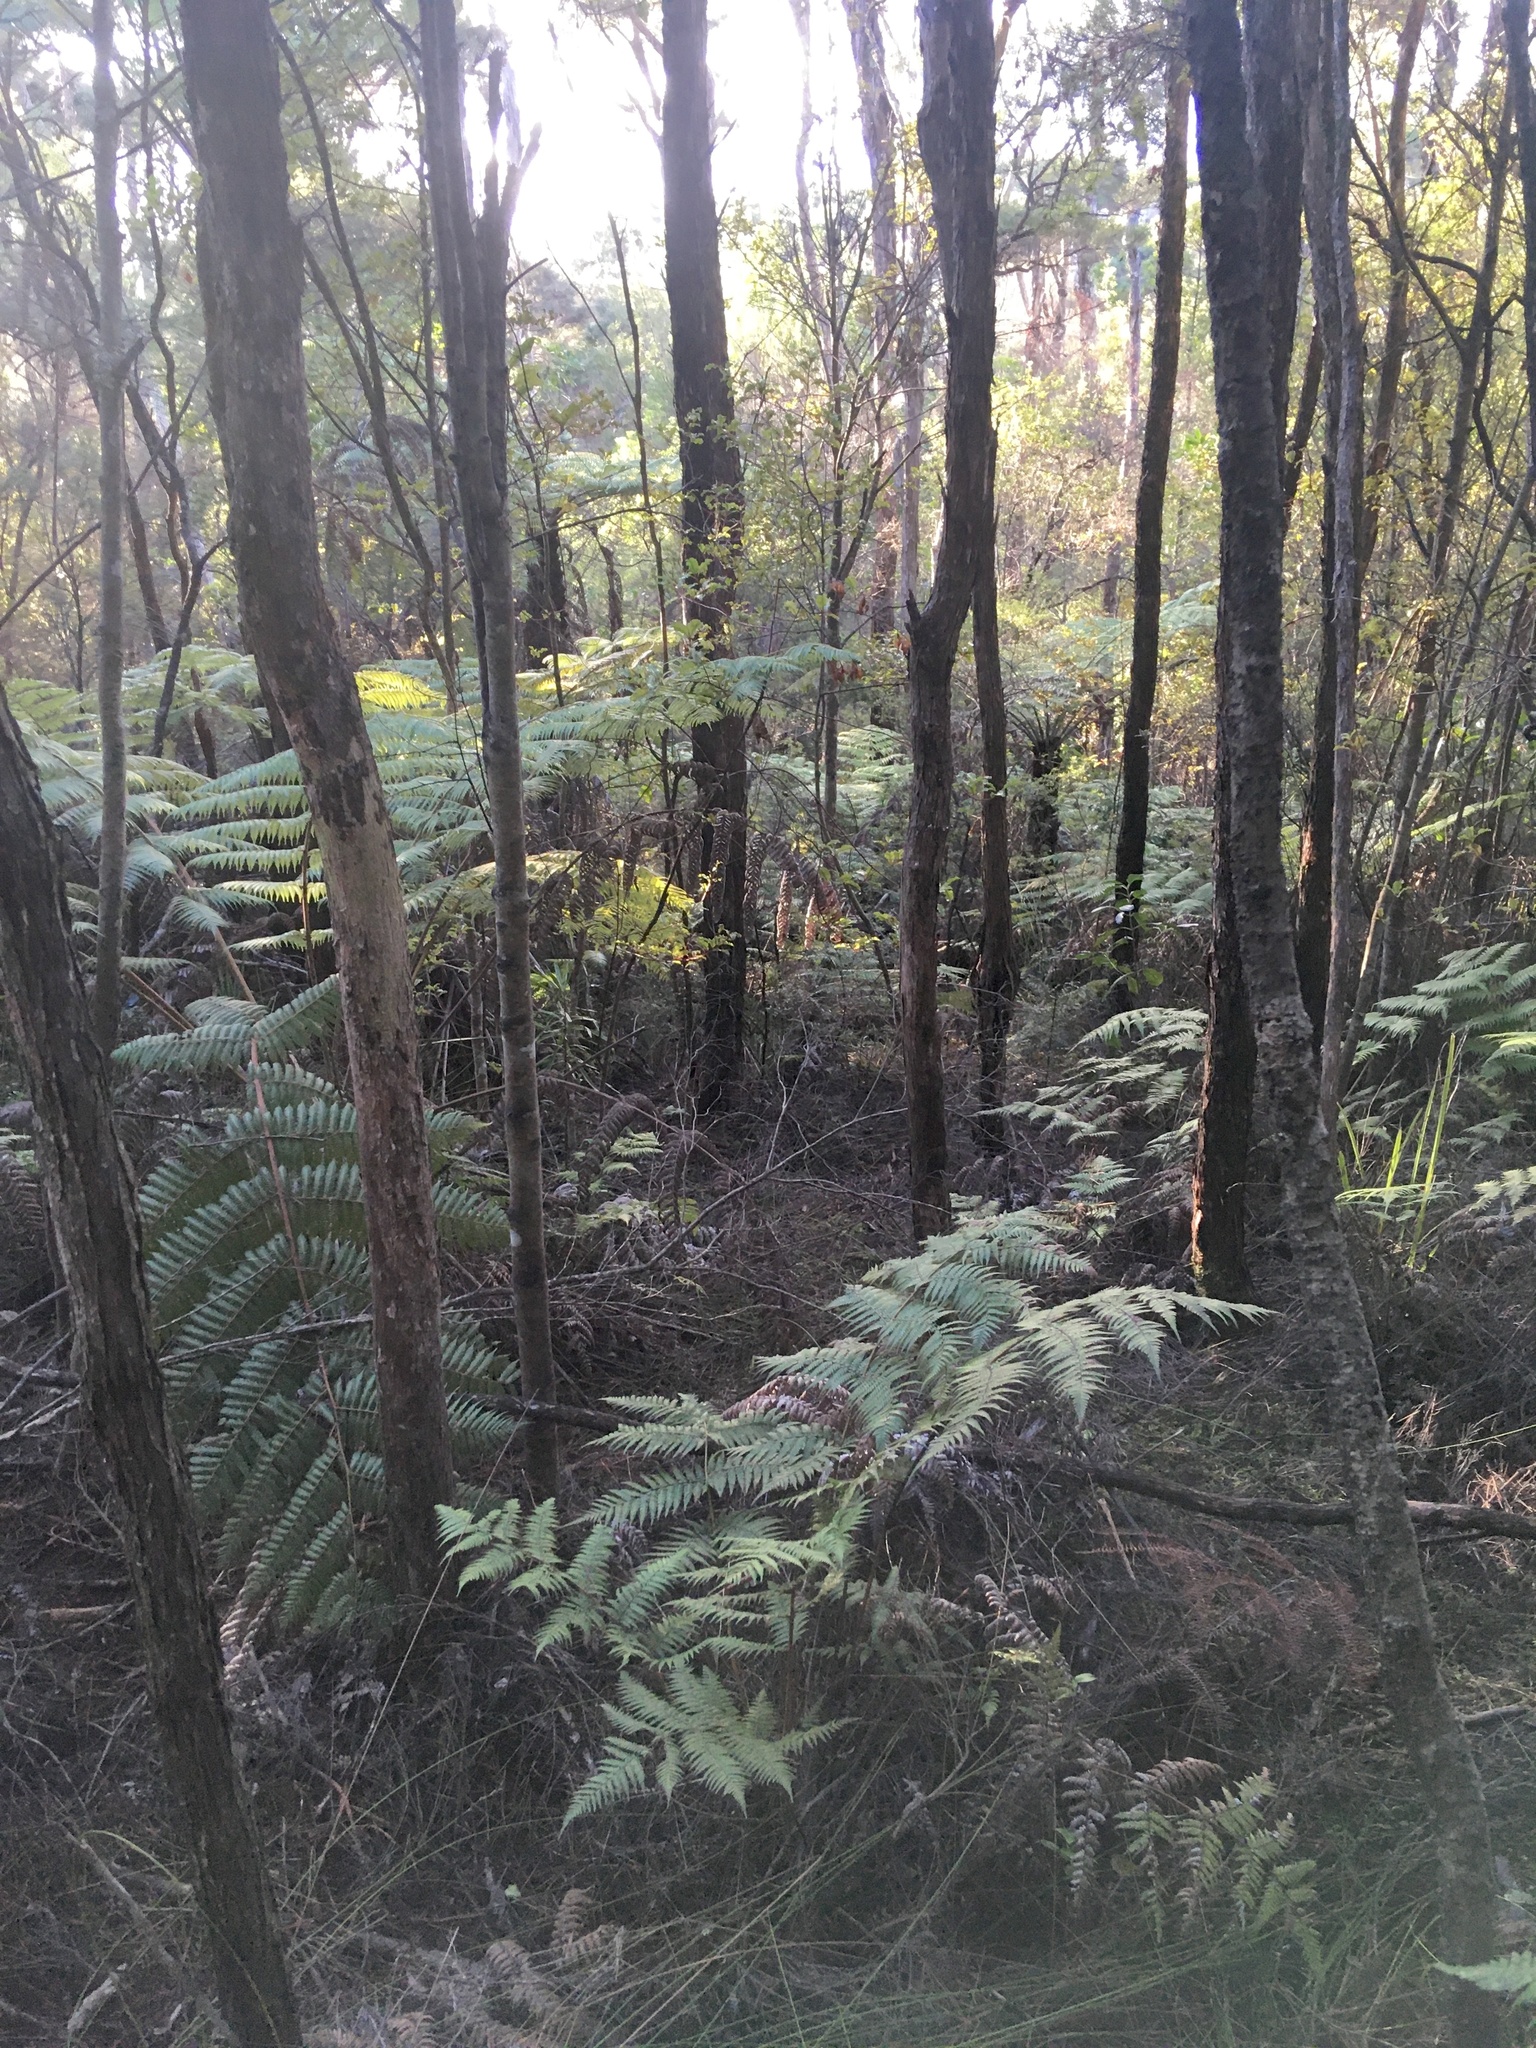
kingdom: Plantae
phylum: Tracheophyta
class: Polypodiopsida
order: Cyatheales
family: Cyatheaceae
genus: Alsophila
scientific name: Alsophila dealbata
